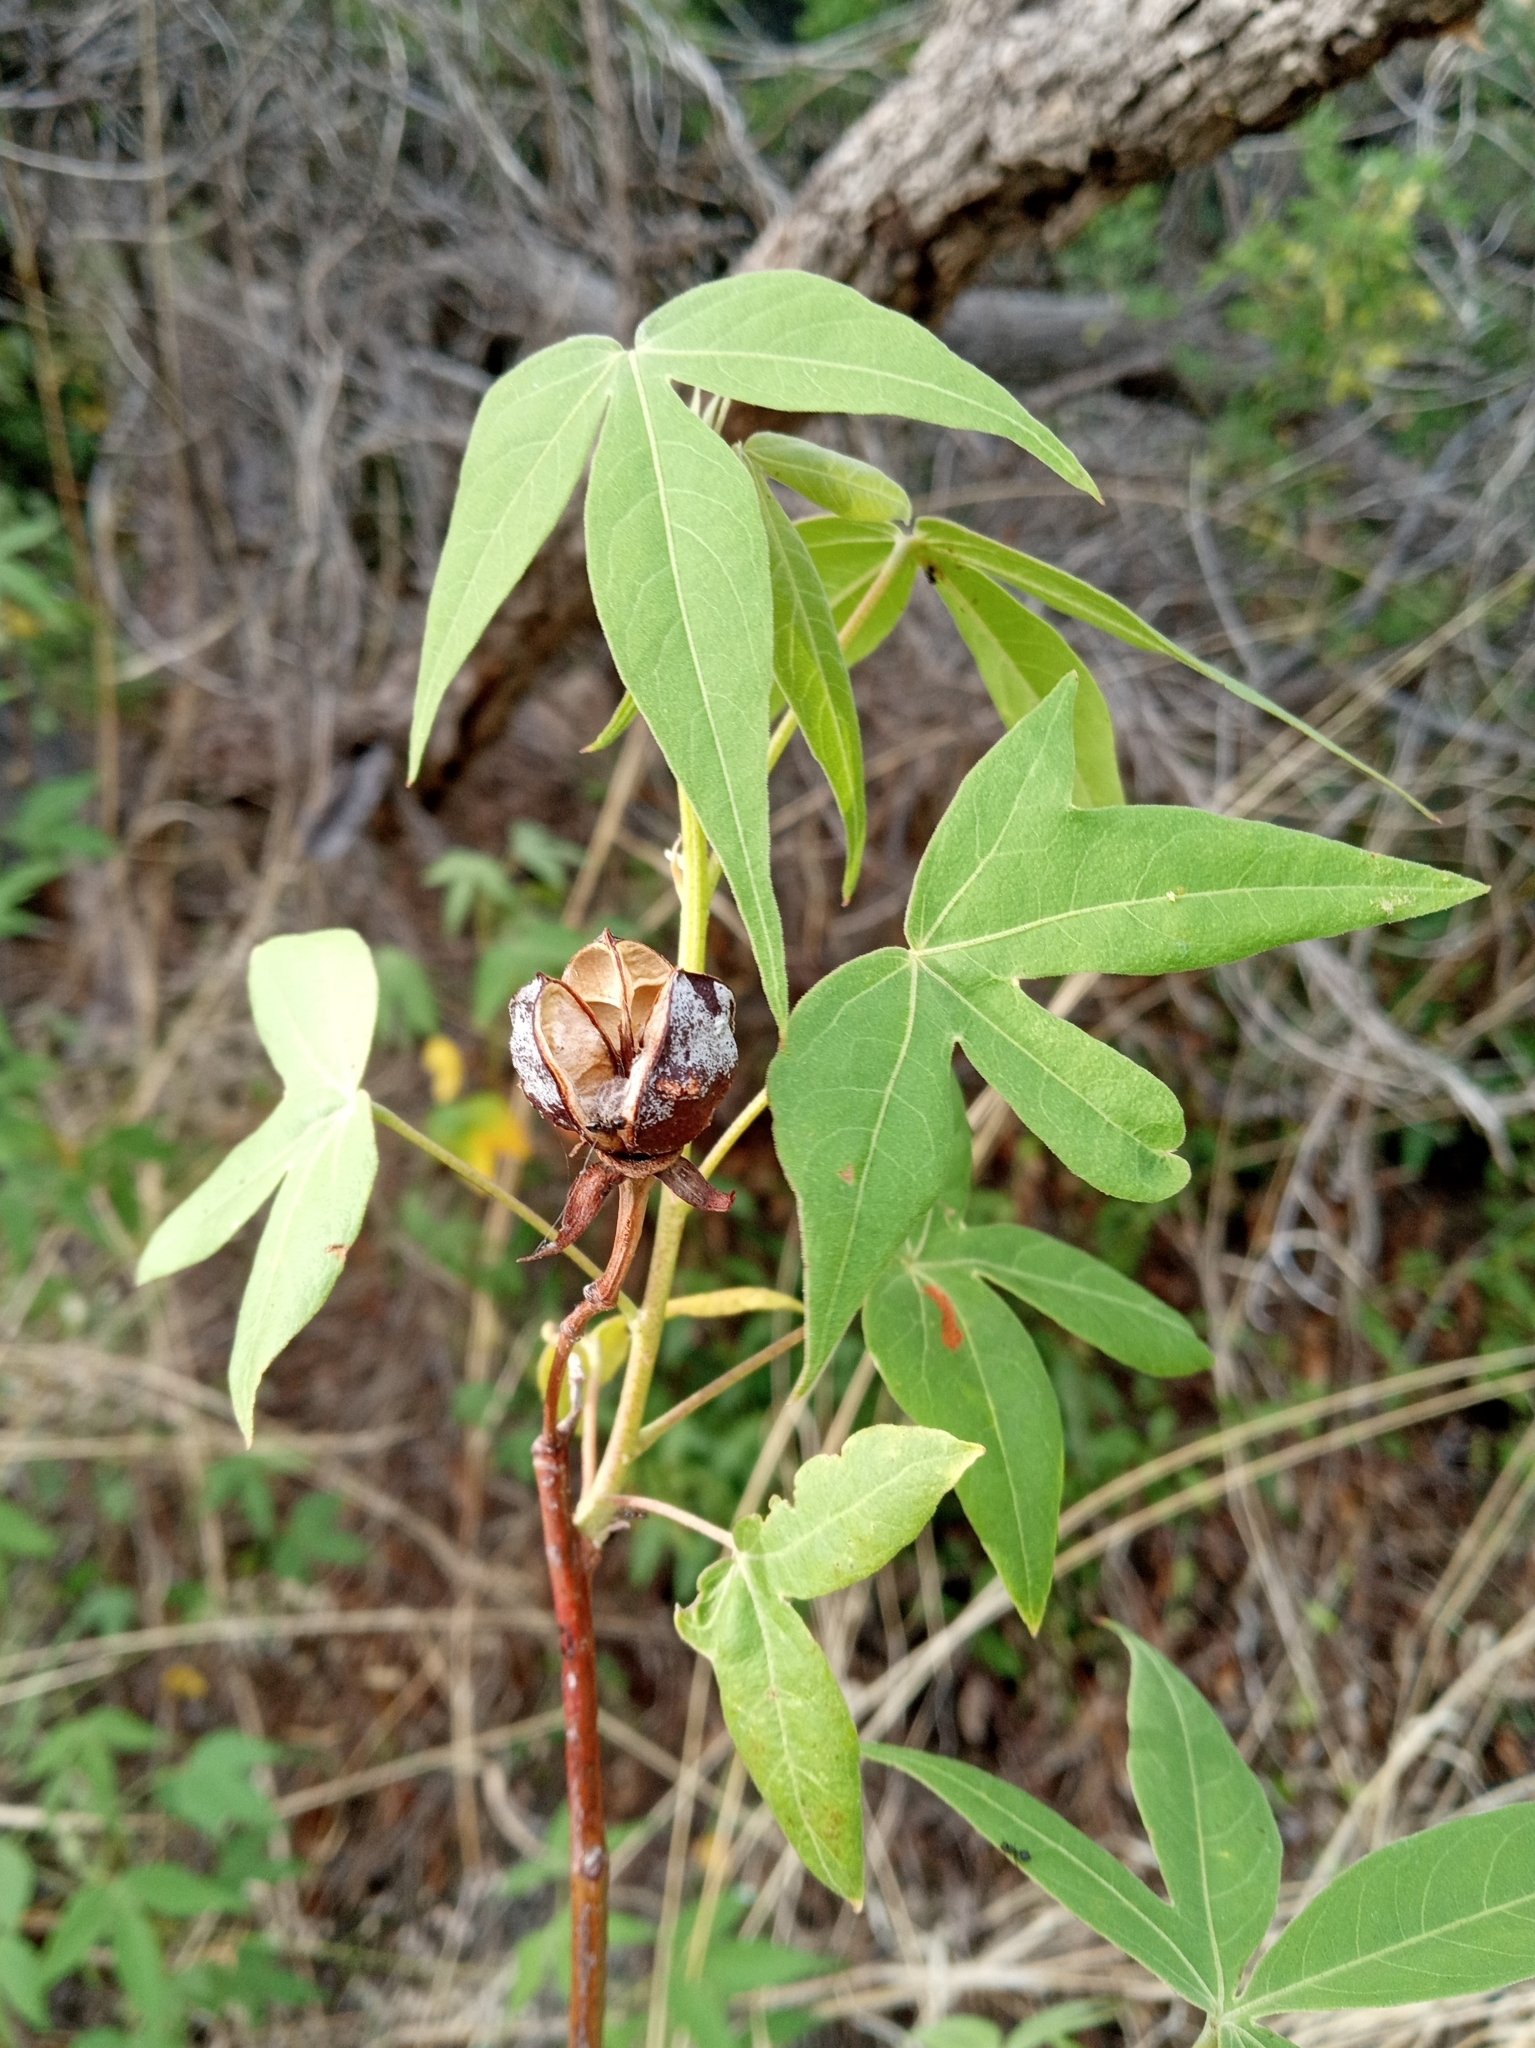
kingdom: Plantae
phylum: Tracheophyta
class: Magnoliopsida
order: Malvales
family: Malvaceae
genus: Gossypium
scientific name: Gossypium thurberi
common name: Desert cotton
